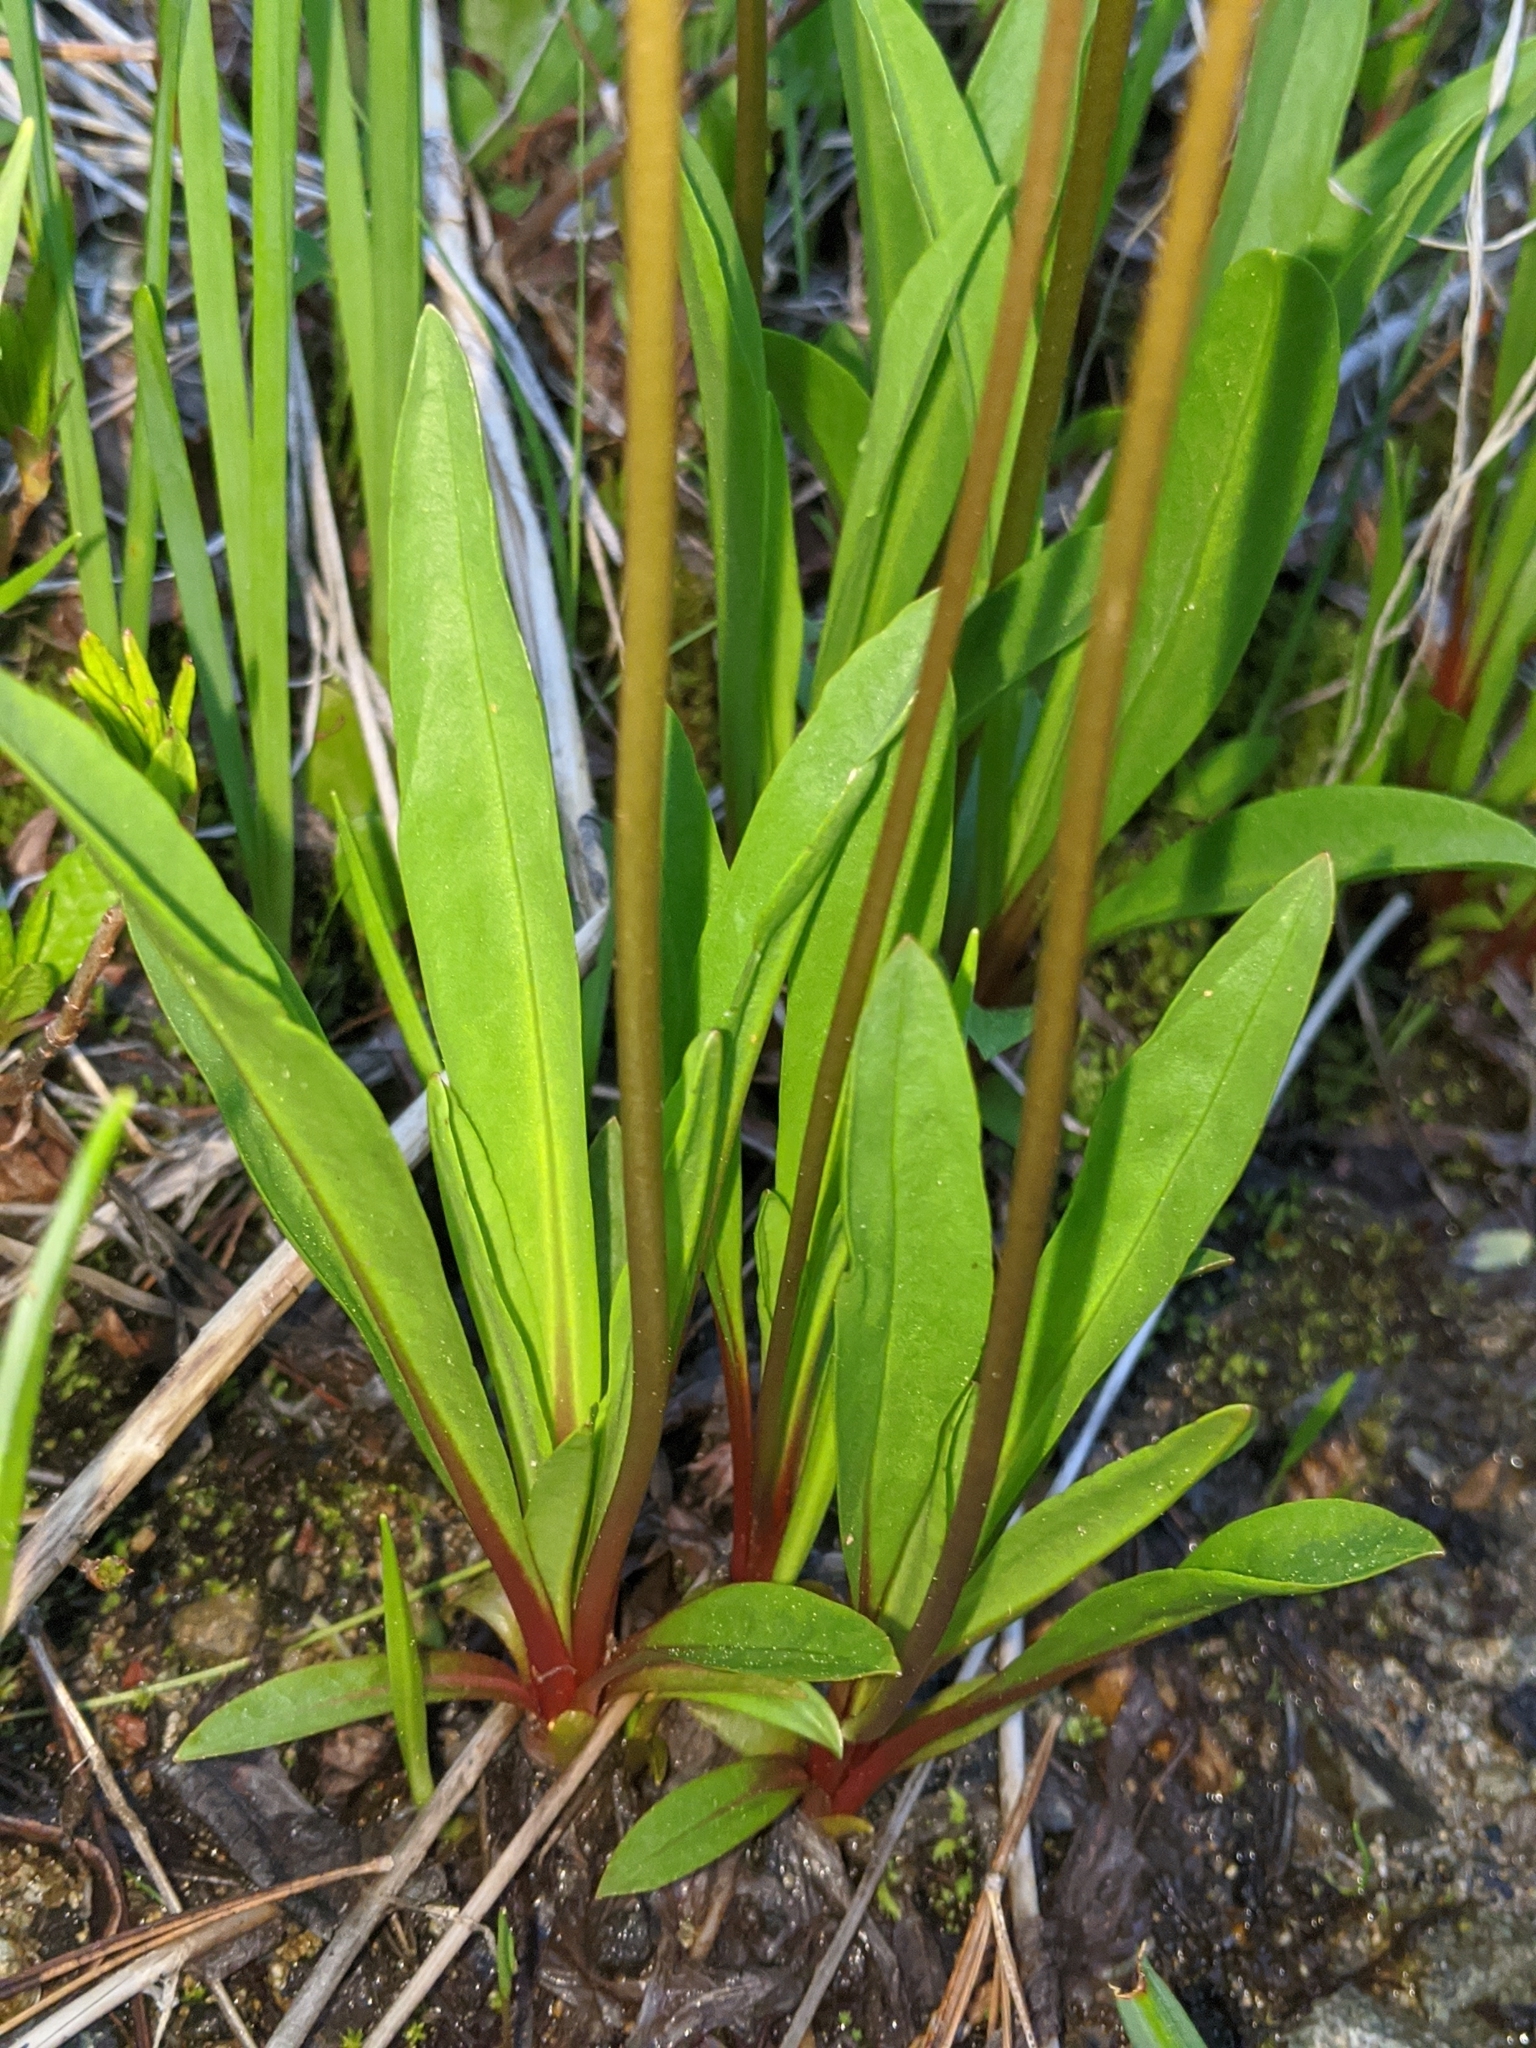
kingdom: Plantae
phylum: Tracheophyta
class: Magnoliopsida
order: Ericales
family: Primulaceae
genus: Dodecatheon
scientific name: Dodecatheon alpinum
